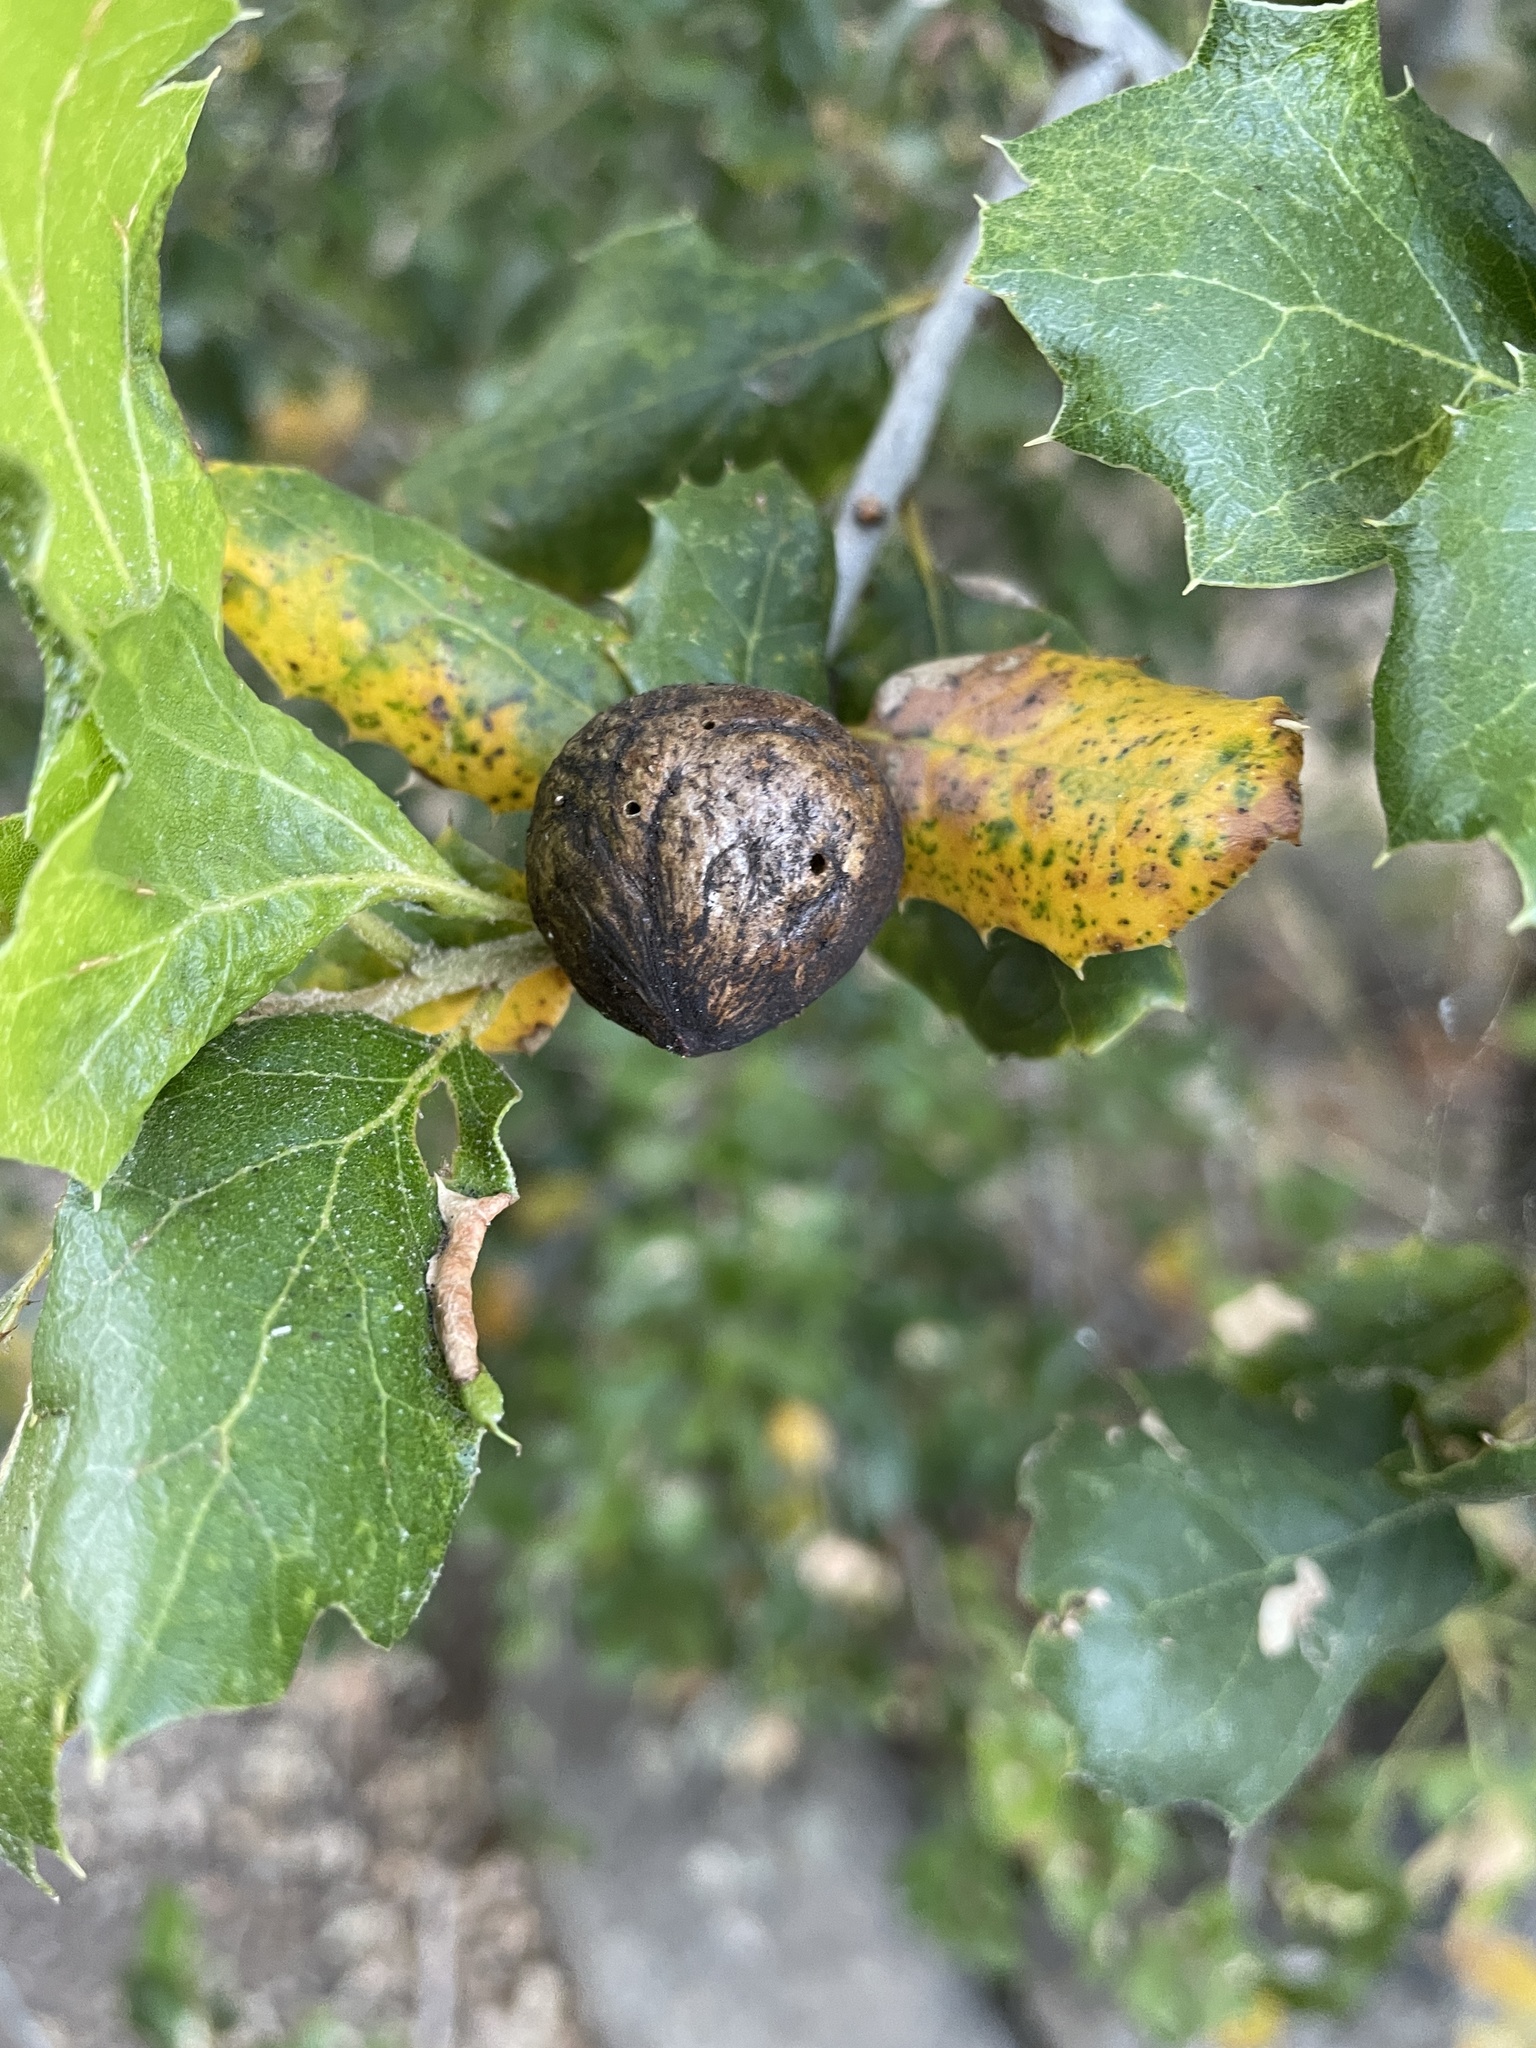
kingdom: Animalia
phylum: Arthropoda
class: Insecta
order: Hymenoptera
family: Cynipidae
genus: Amphibolips
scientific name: Amphibolips quercuspomiformis
